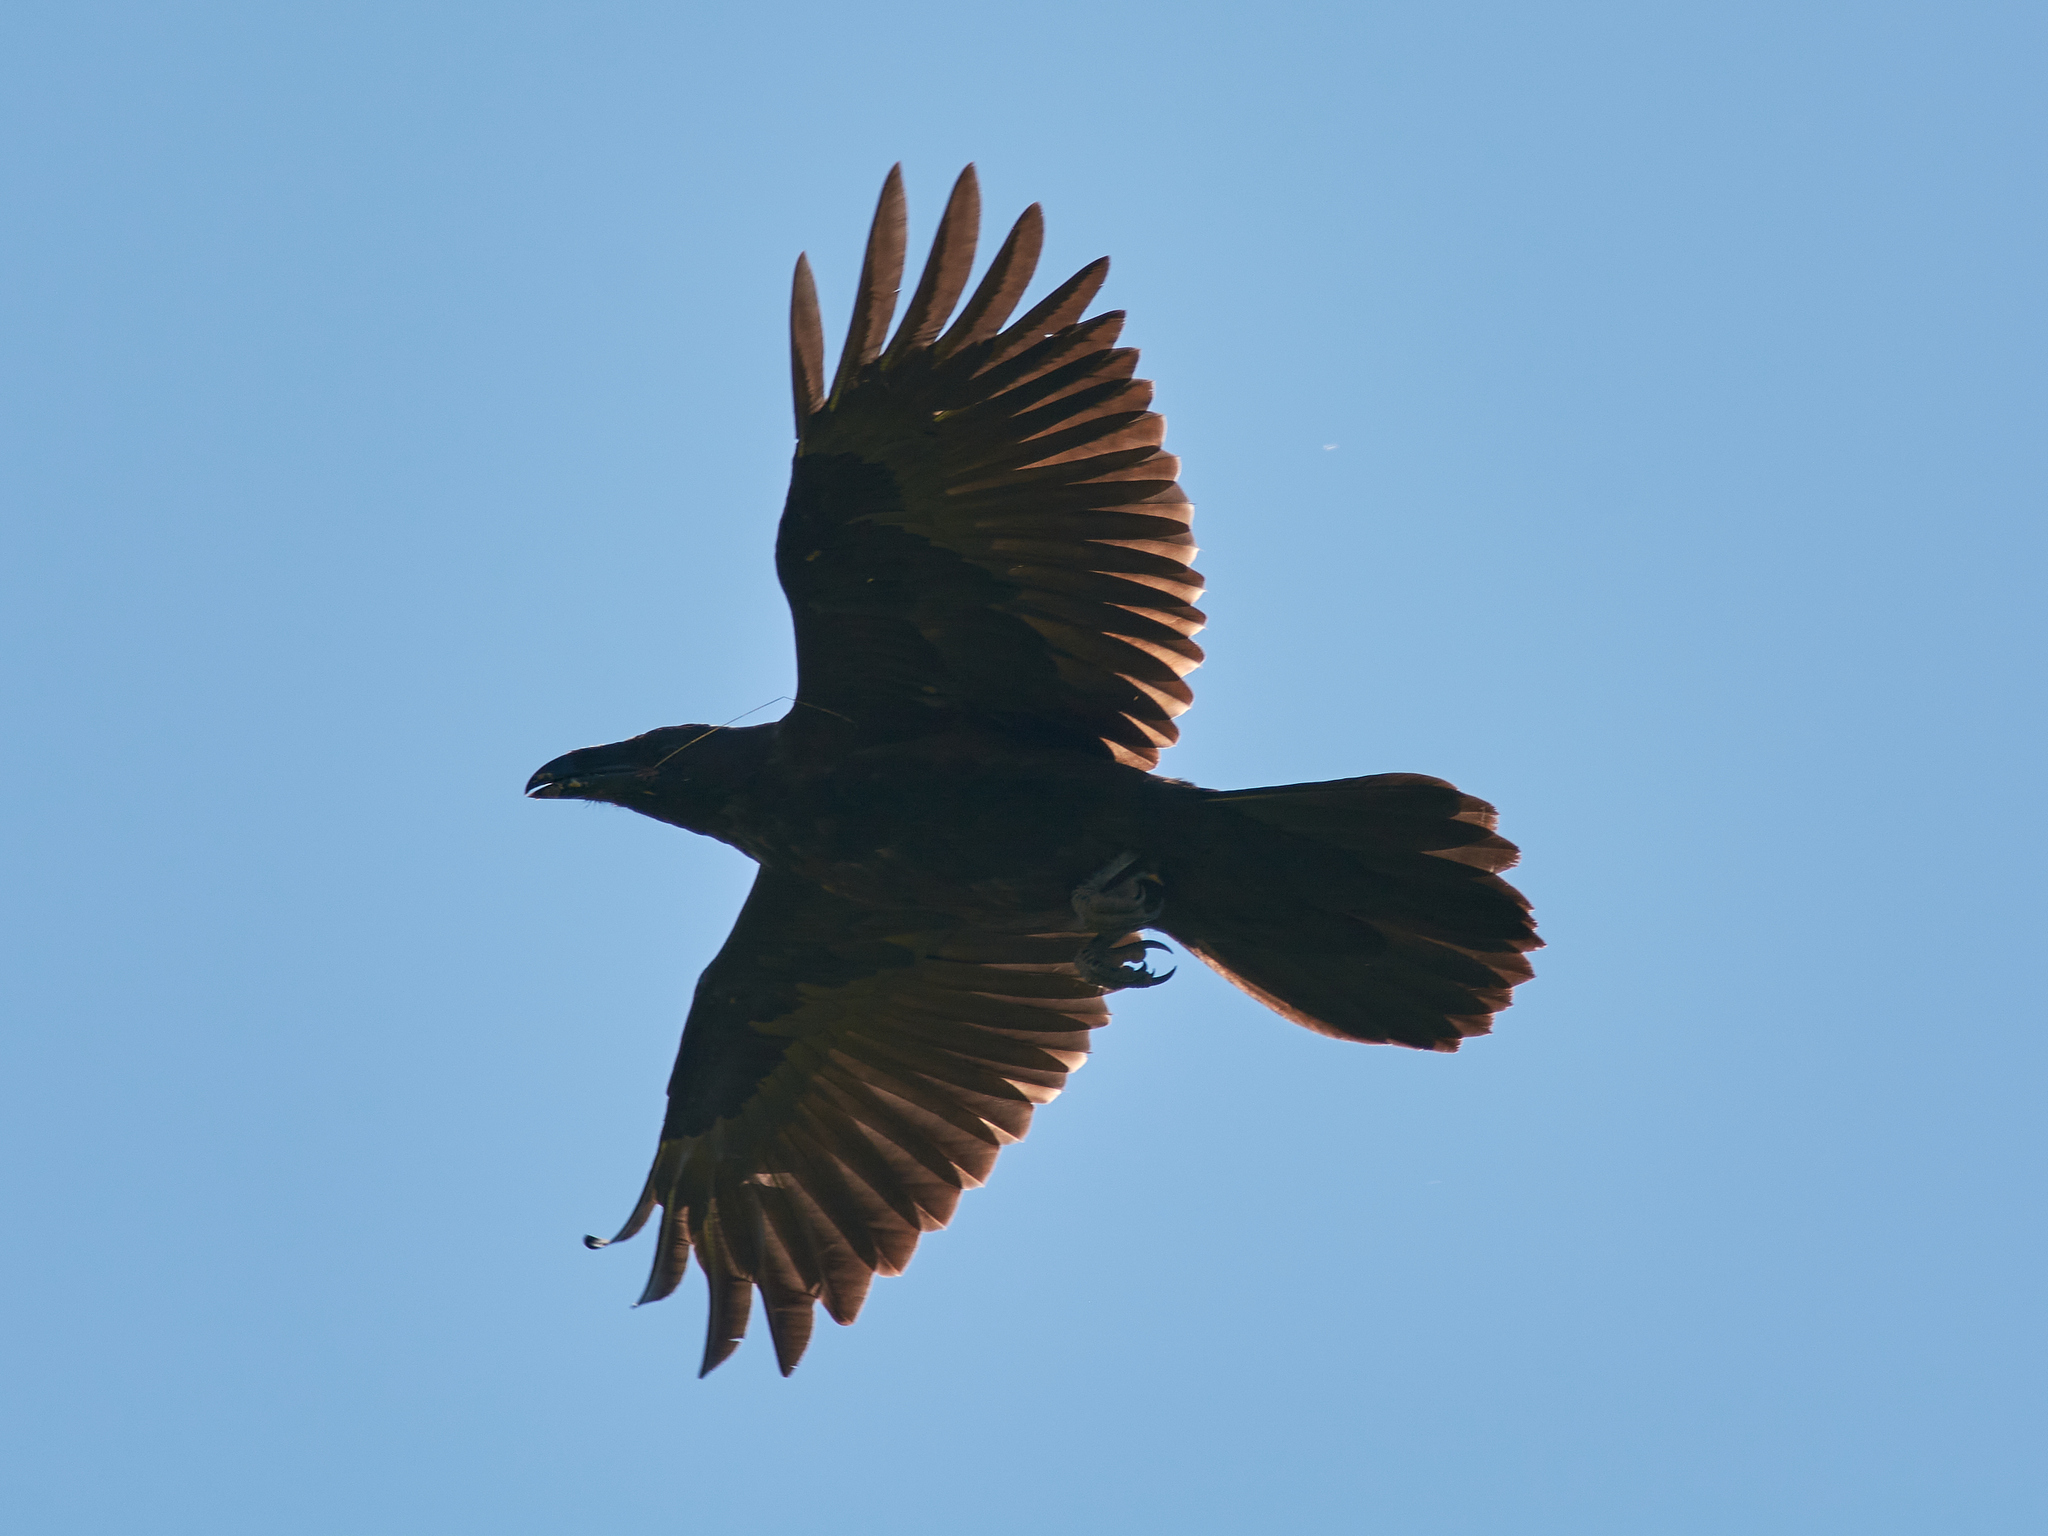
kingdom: Animalia
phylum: Chordata
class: Aves
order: Passeriformes
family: Corvidae
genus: Corvus
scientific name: Corvus corax
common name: Common raven
